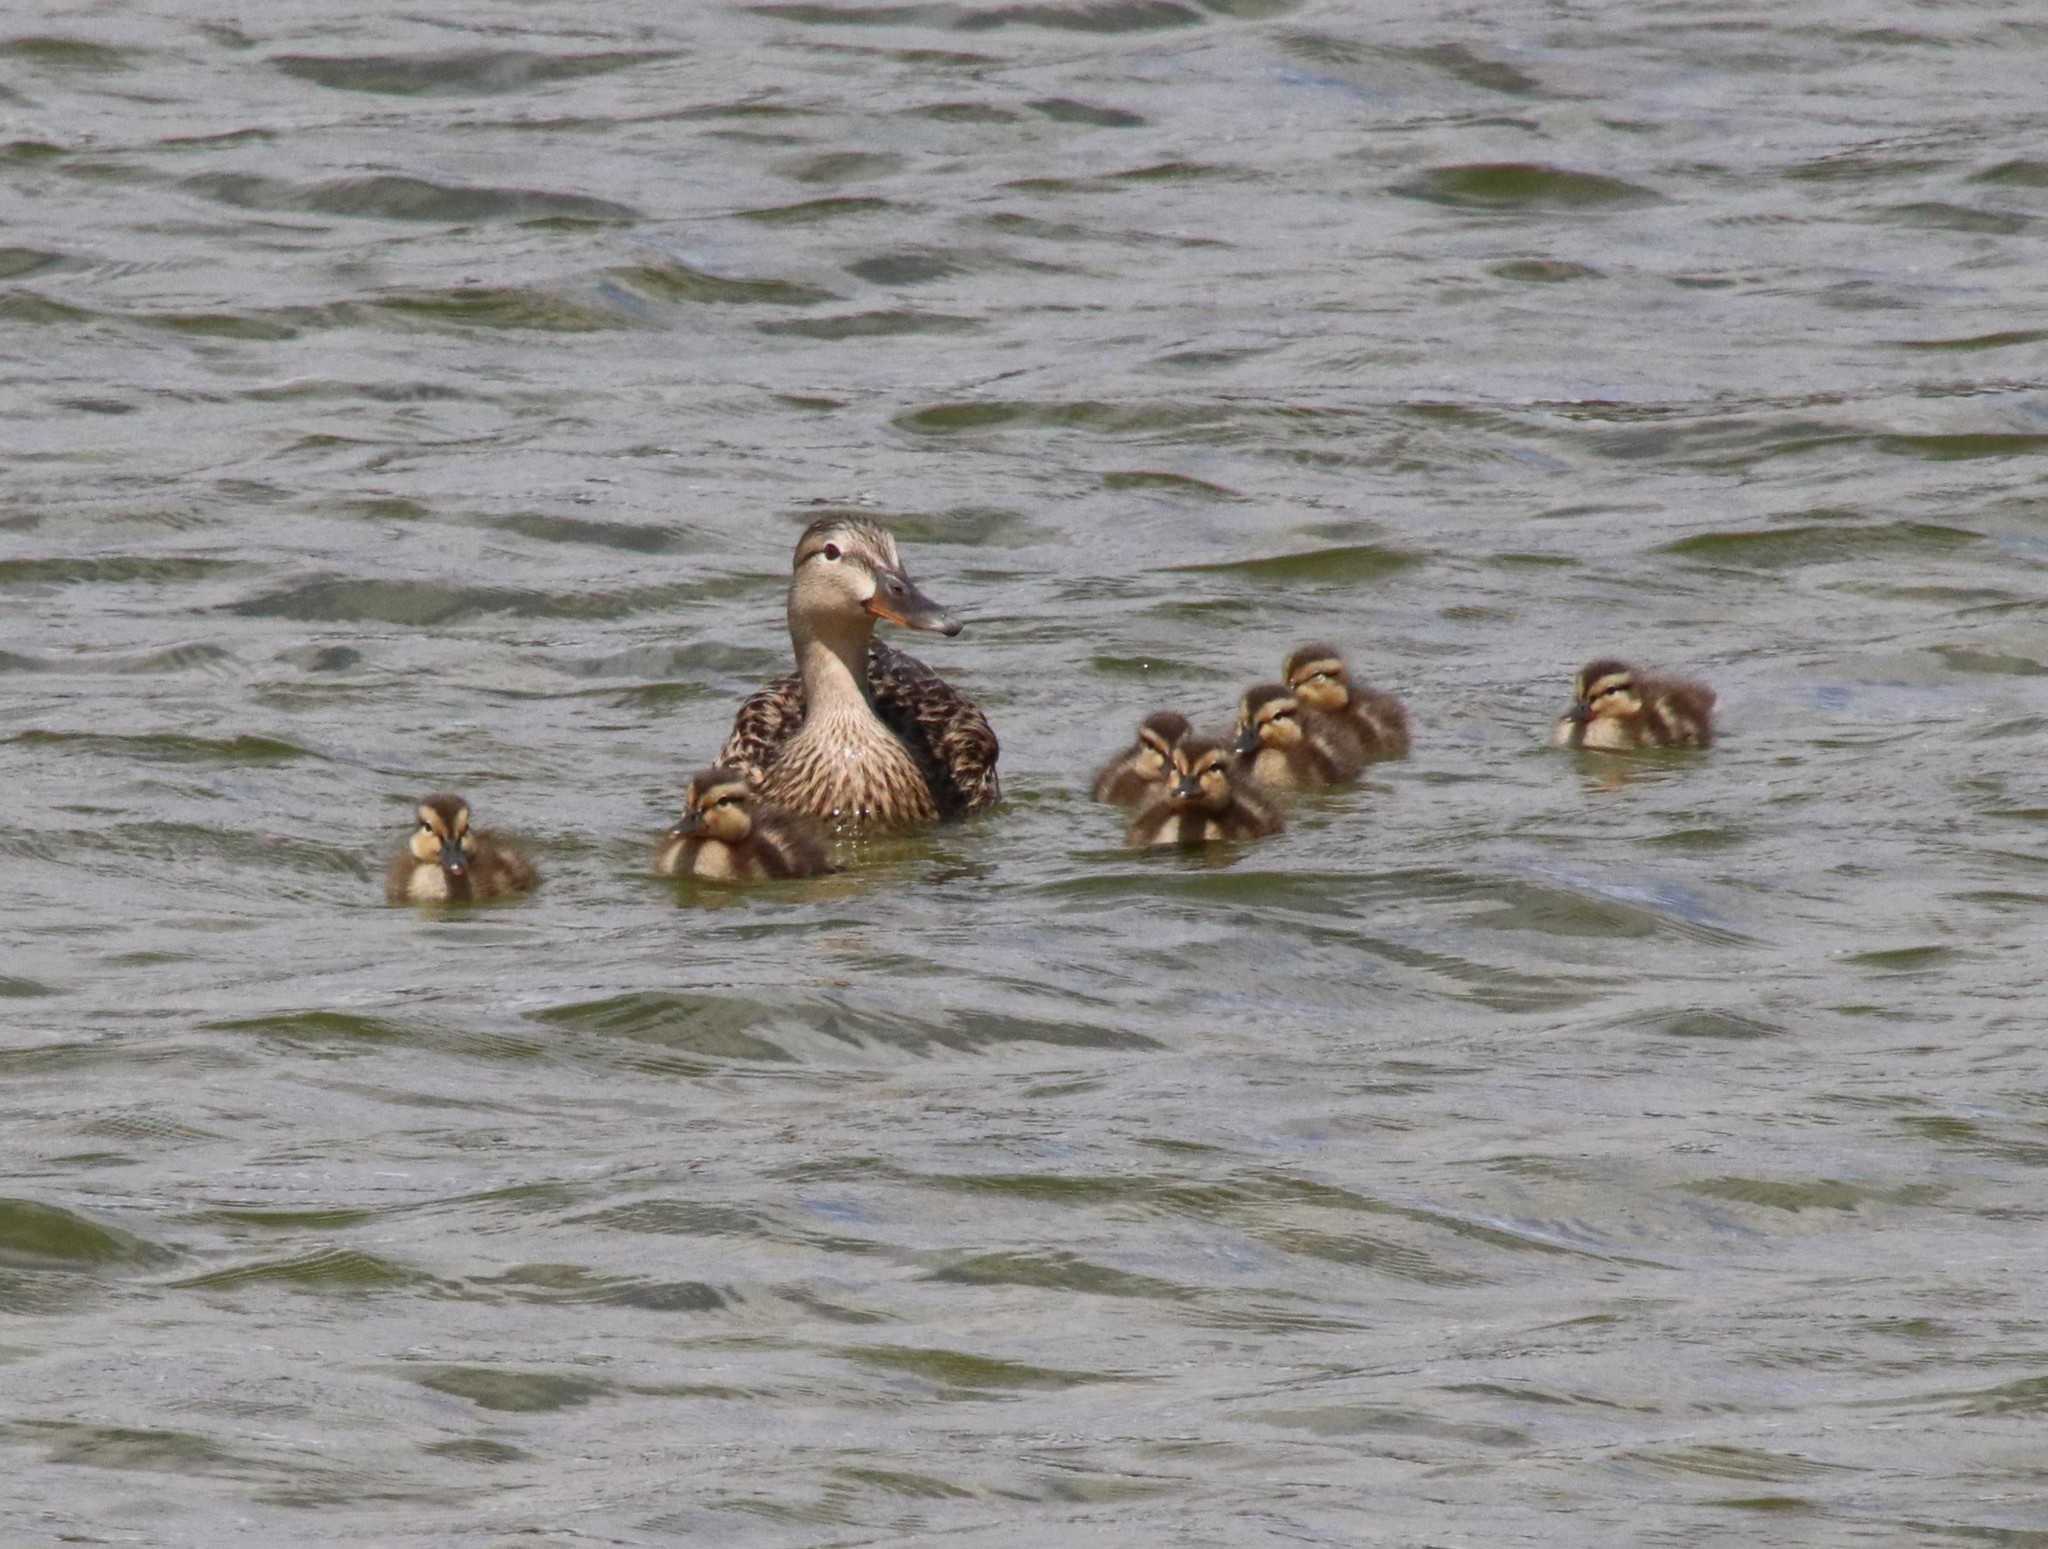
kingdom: Animalia
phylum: Chordata
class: Aves
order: Anseriformes
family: Anatidae
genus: Anas
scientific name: Anas platyrhynchos
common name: Mallard
